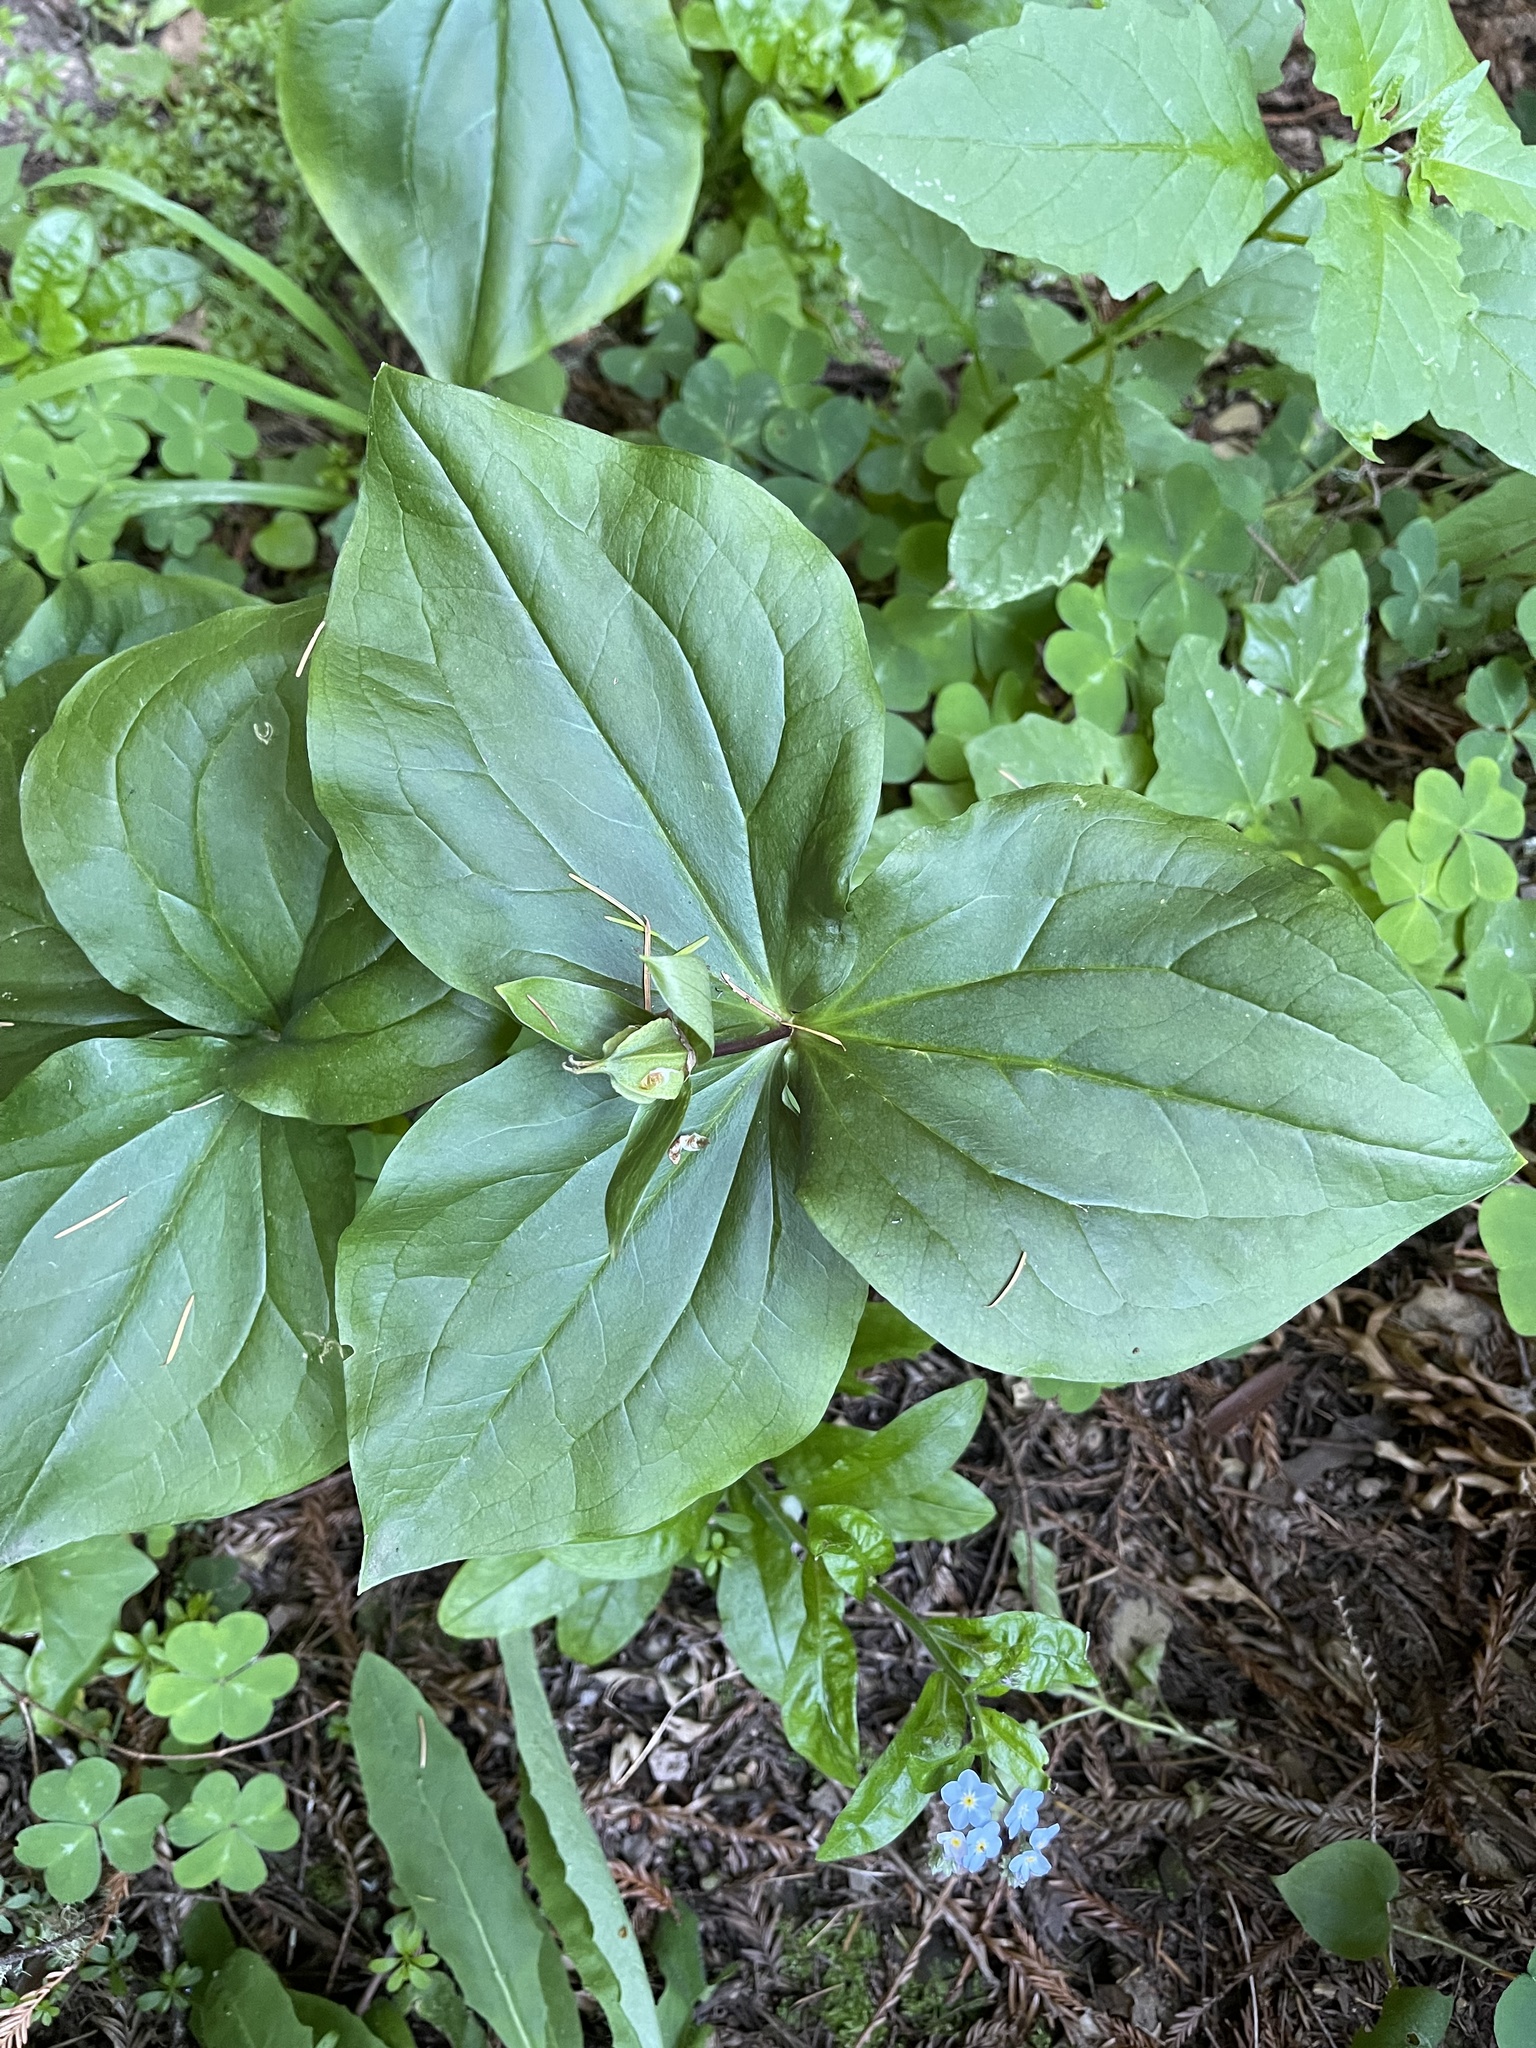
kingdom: Plantae
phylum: Tracheophyta
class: Liliopsida
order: Liliales
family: Melanthiaceae
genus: Trillium
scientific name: Trillium ovatum
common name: Pacific trillium
